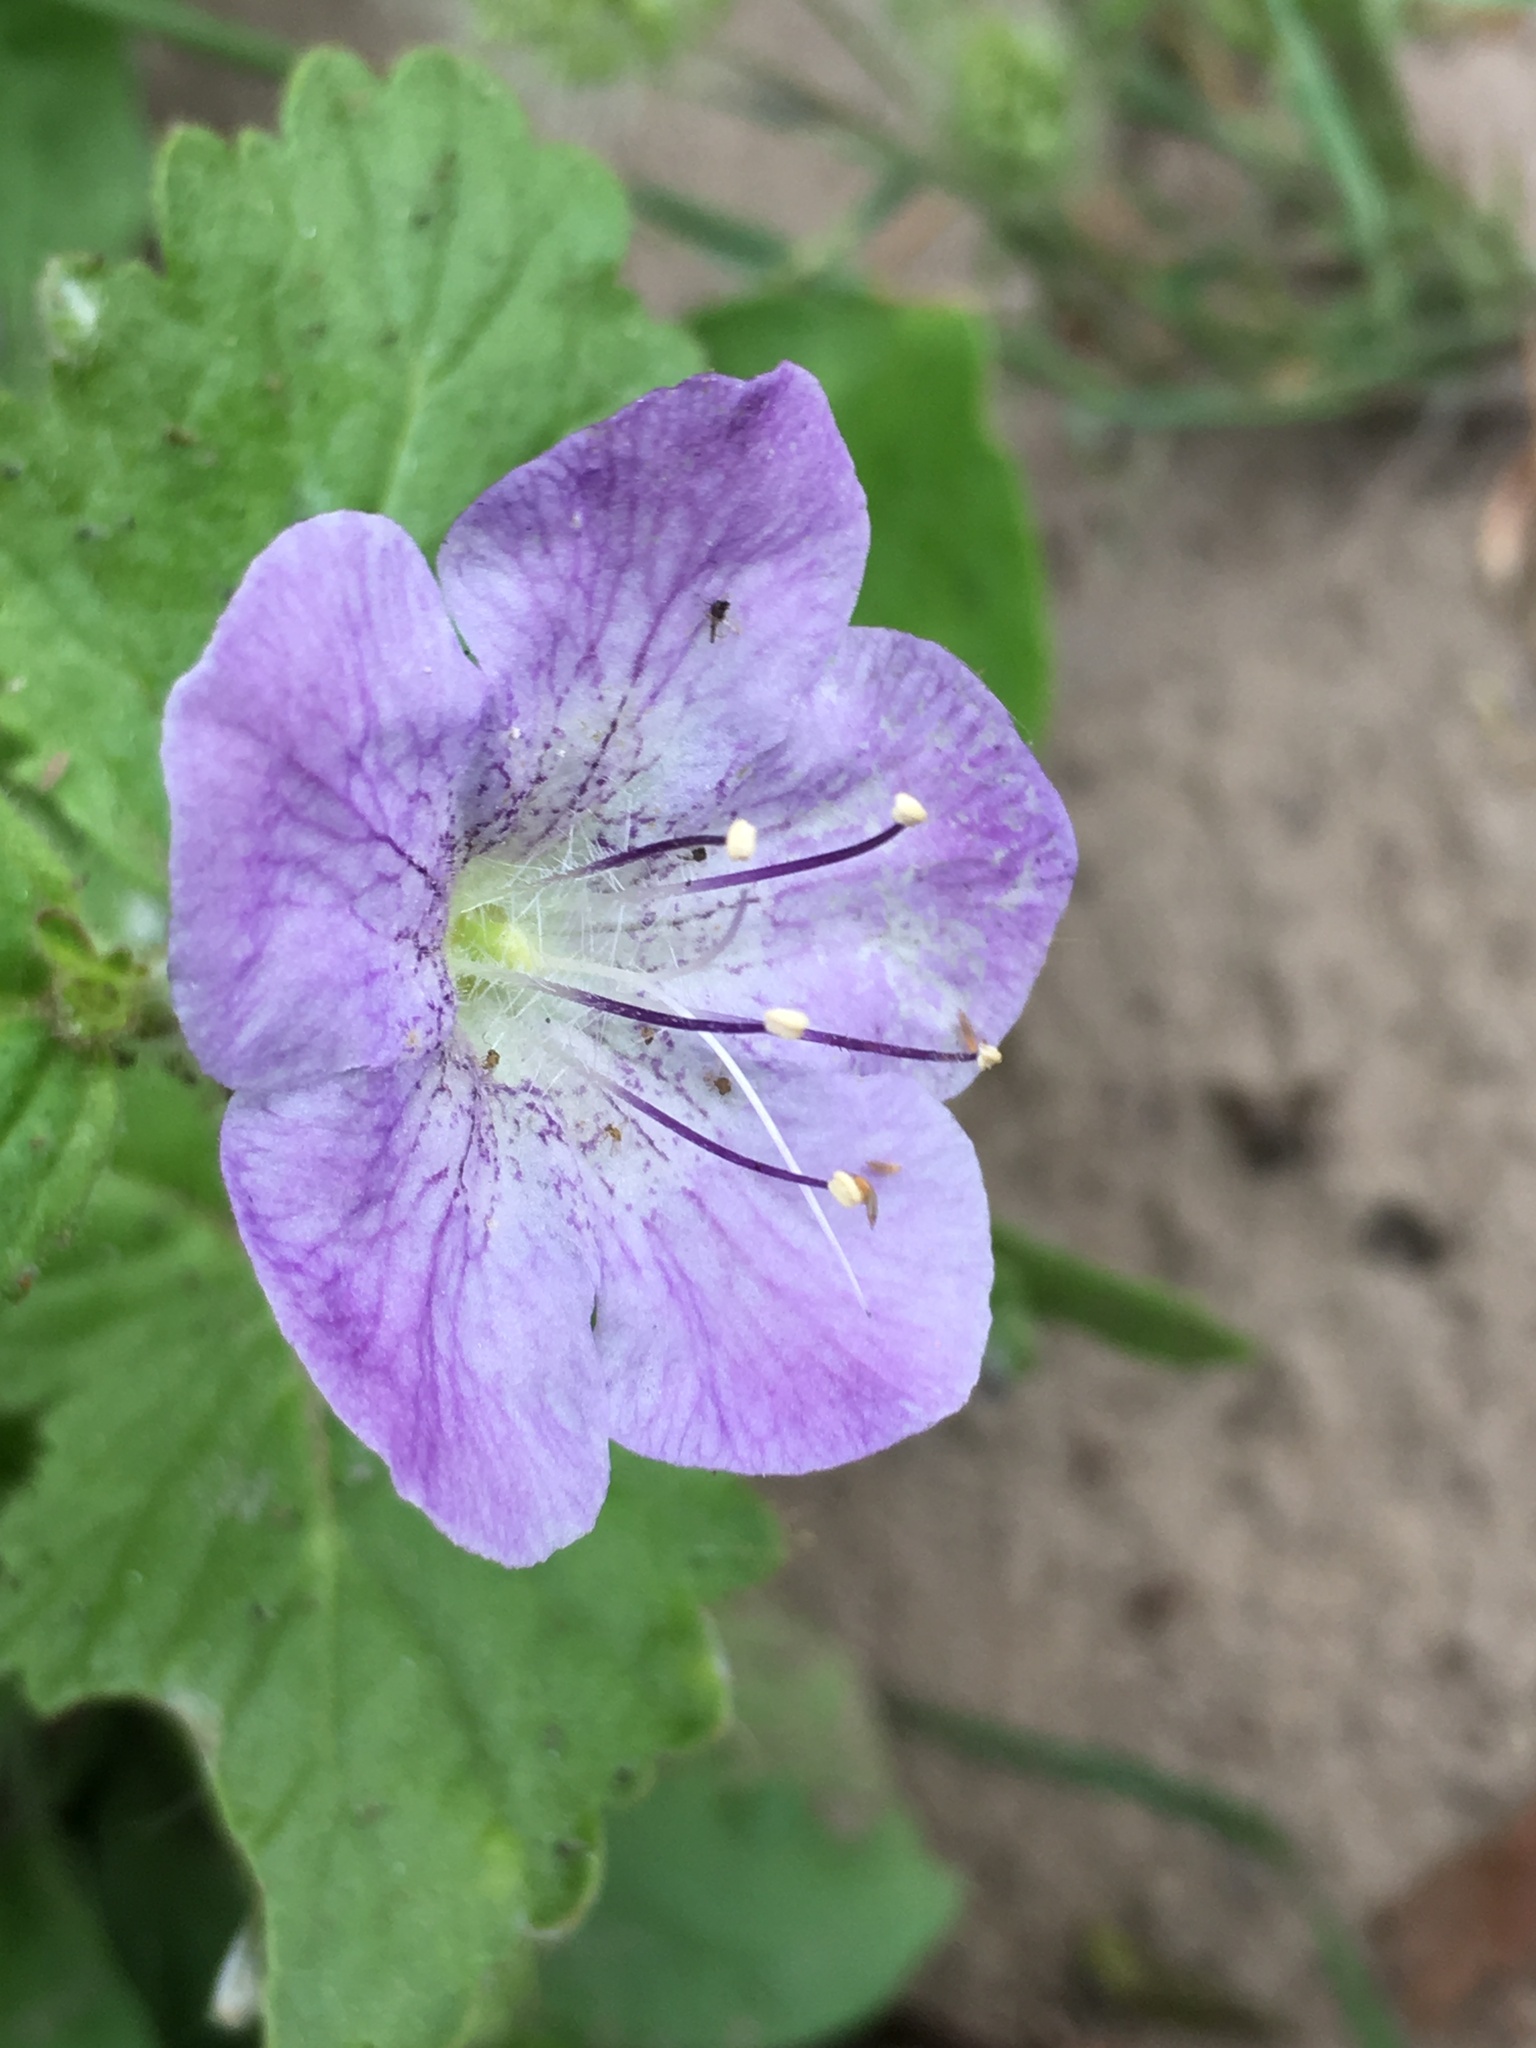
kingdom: Plantae
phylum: Tracheophyta
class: Magnoliopsida
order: Boraginales
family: Hydrophyllaceae
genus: Phacelia
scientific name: Phacelia grandiflora
